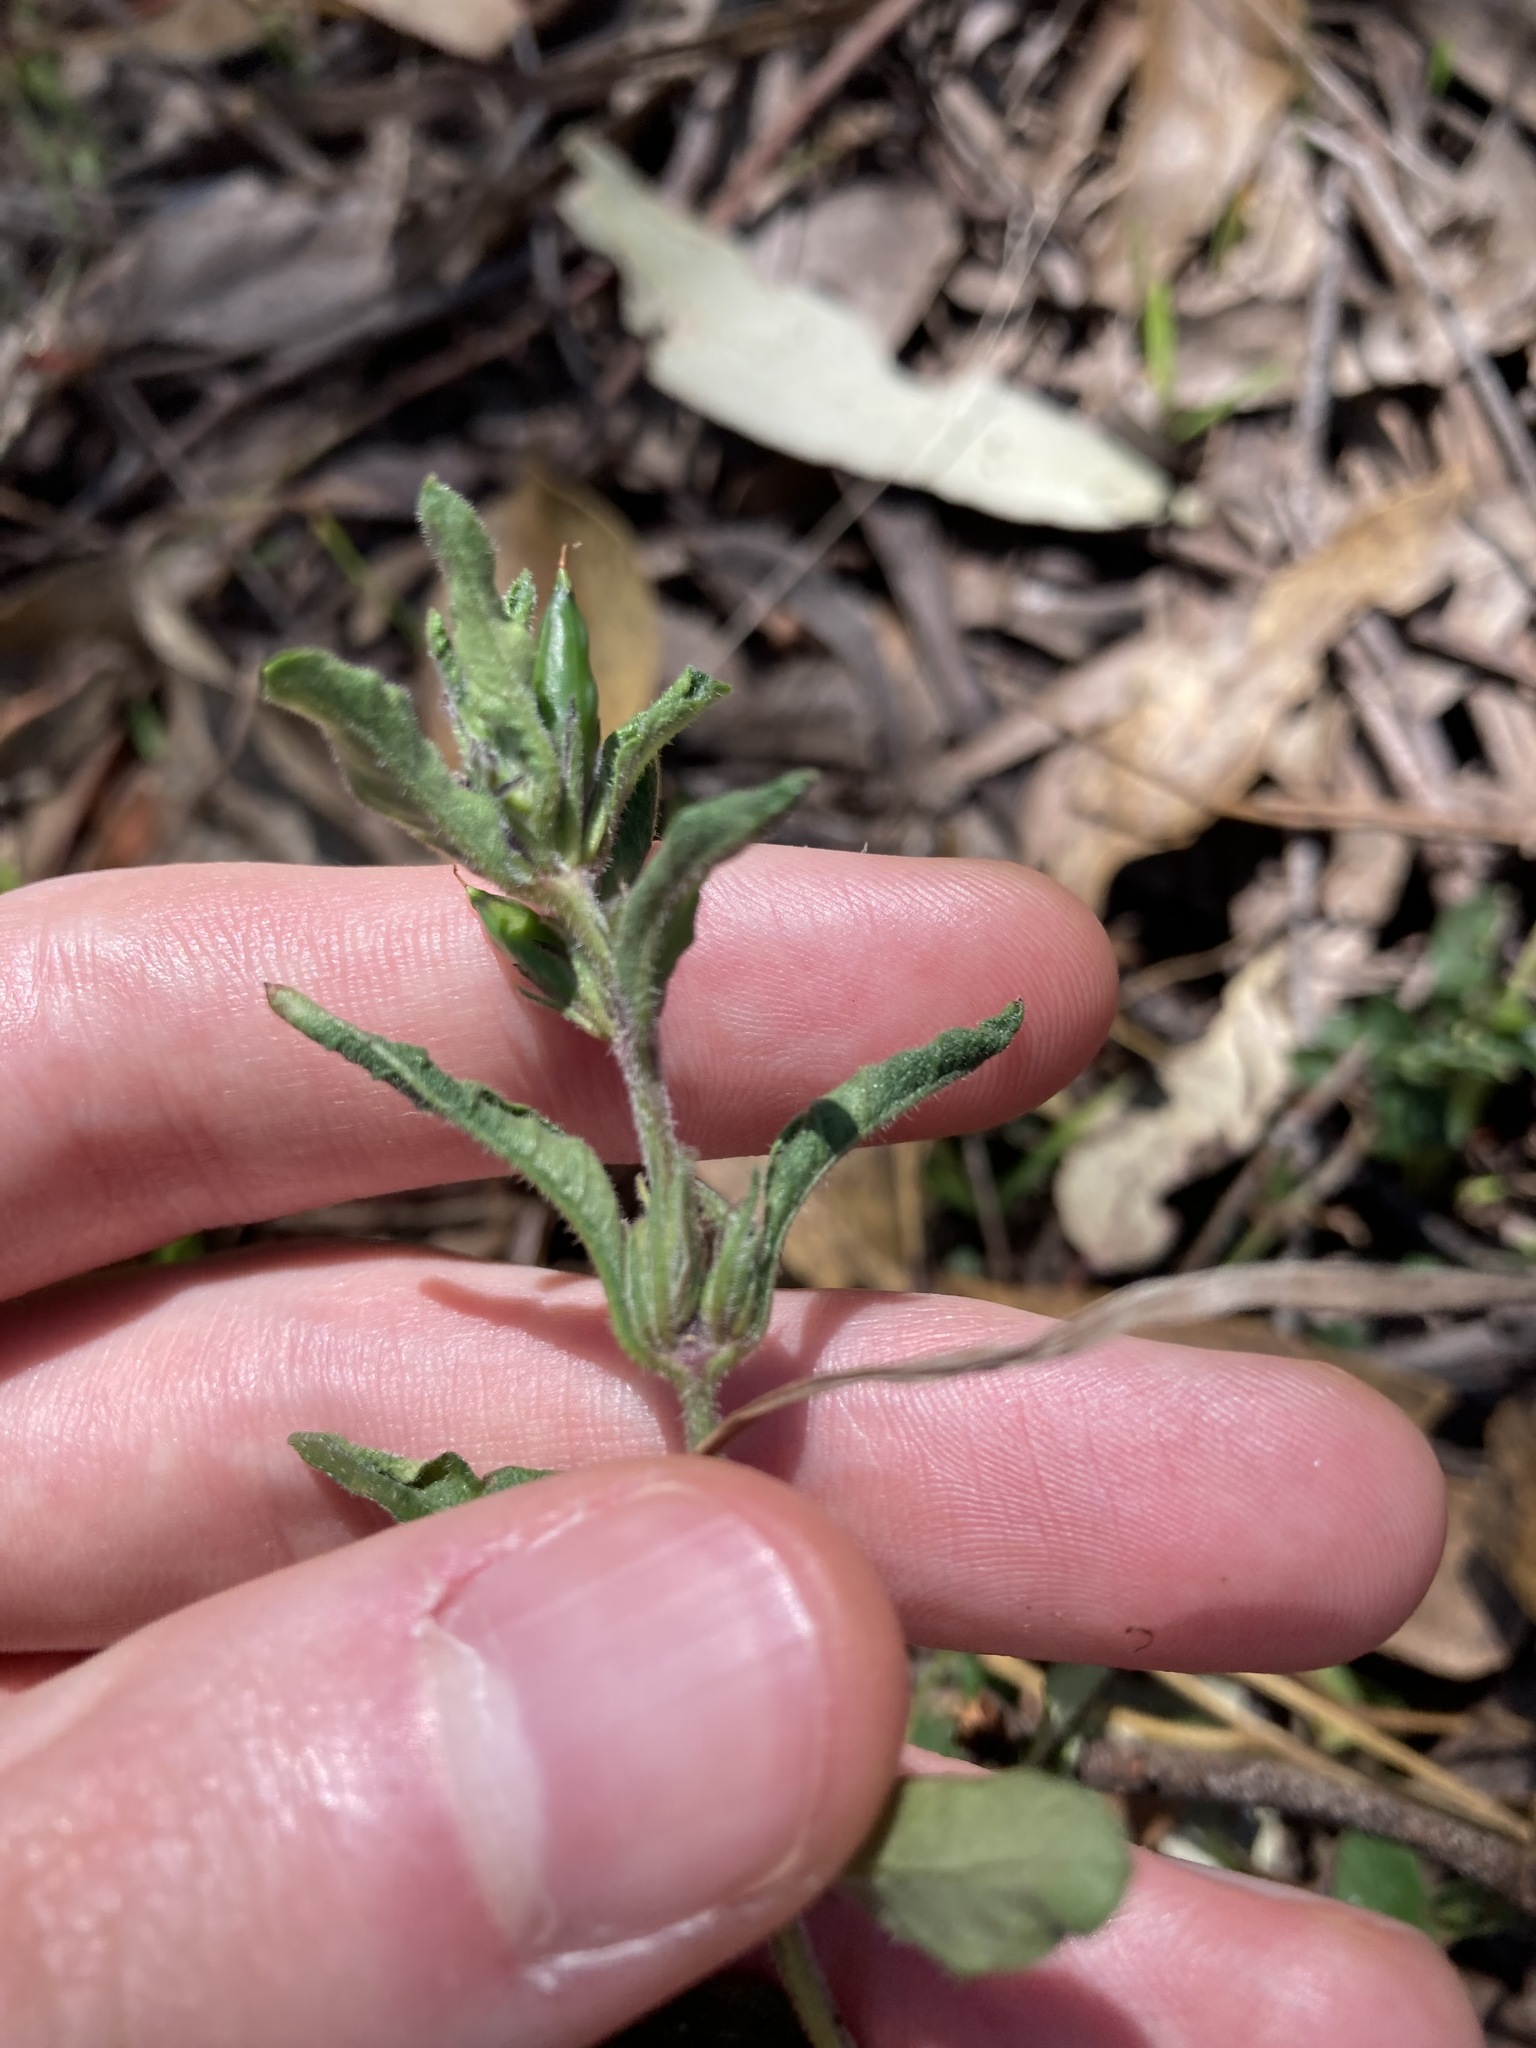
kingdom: Plantae
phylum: Tracheophyta
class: Magnoliopsida
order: Lamiales
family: Acanthaceae
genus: Brunoniella
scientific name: Brunoniella australis
